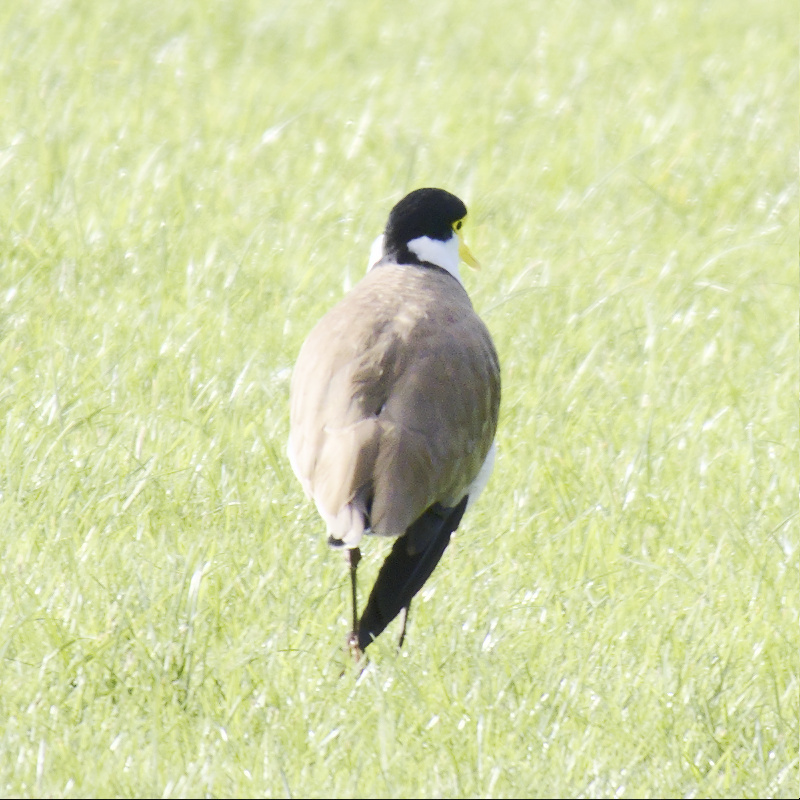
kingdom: Animalia
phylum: Chordata
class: Aves
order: Charadriiformes
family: Charadriidae
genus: Vanellus
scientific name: Vanellus miles
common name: Masked lapwing
